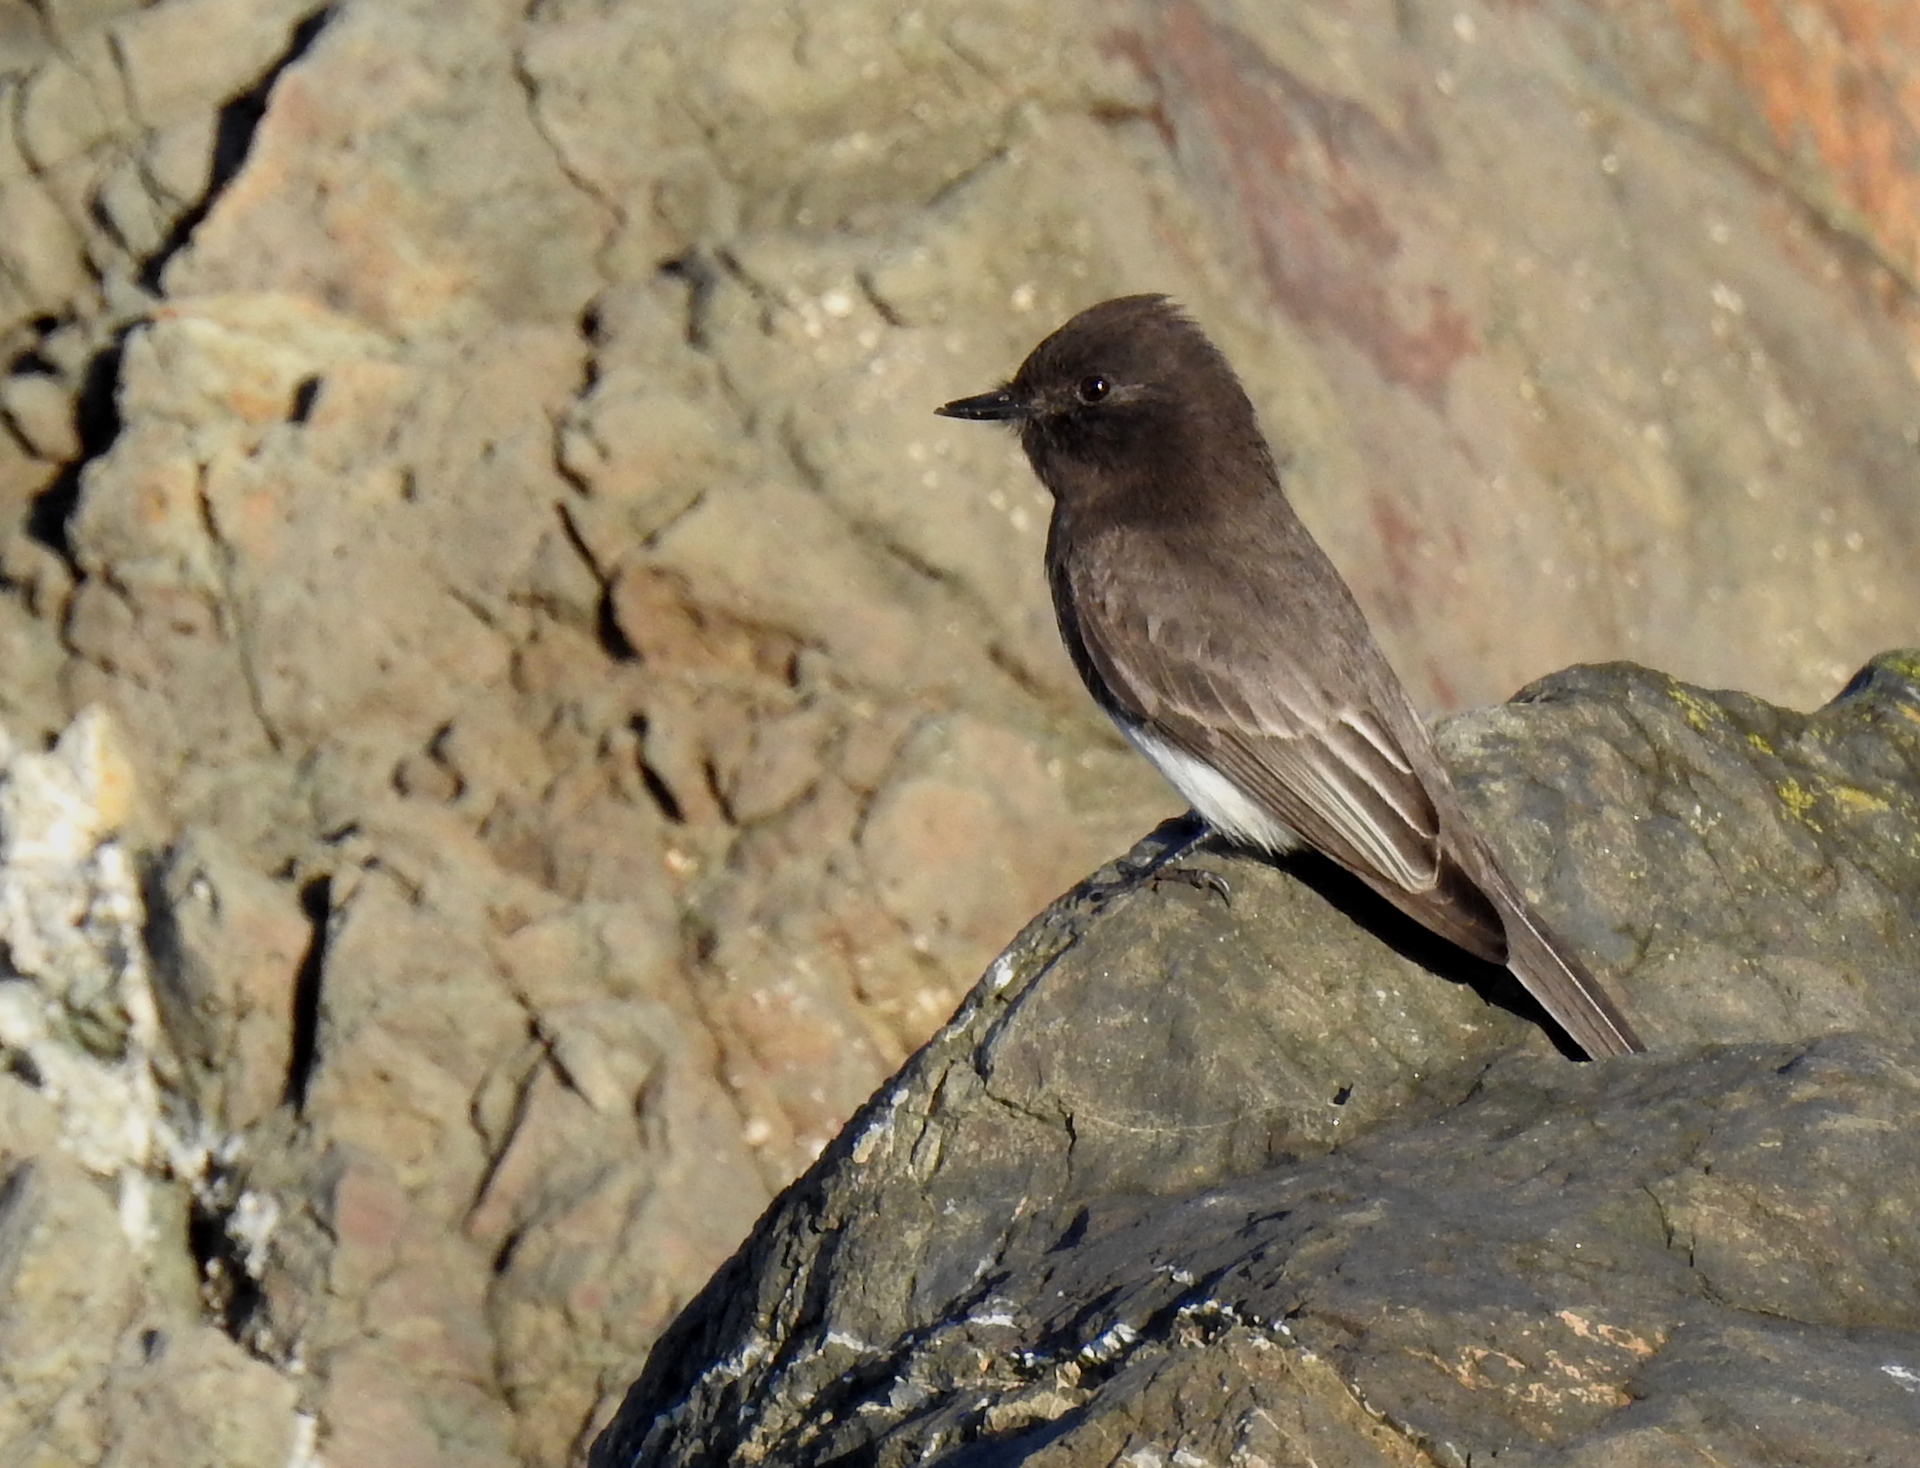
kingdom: Animalia
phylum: Chordata
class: Aves
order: Passeriformes
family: Tyrannidae
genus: Sayornis
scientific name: Sayornis nigricans
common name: Black phoebe
